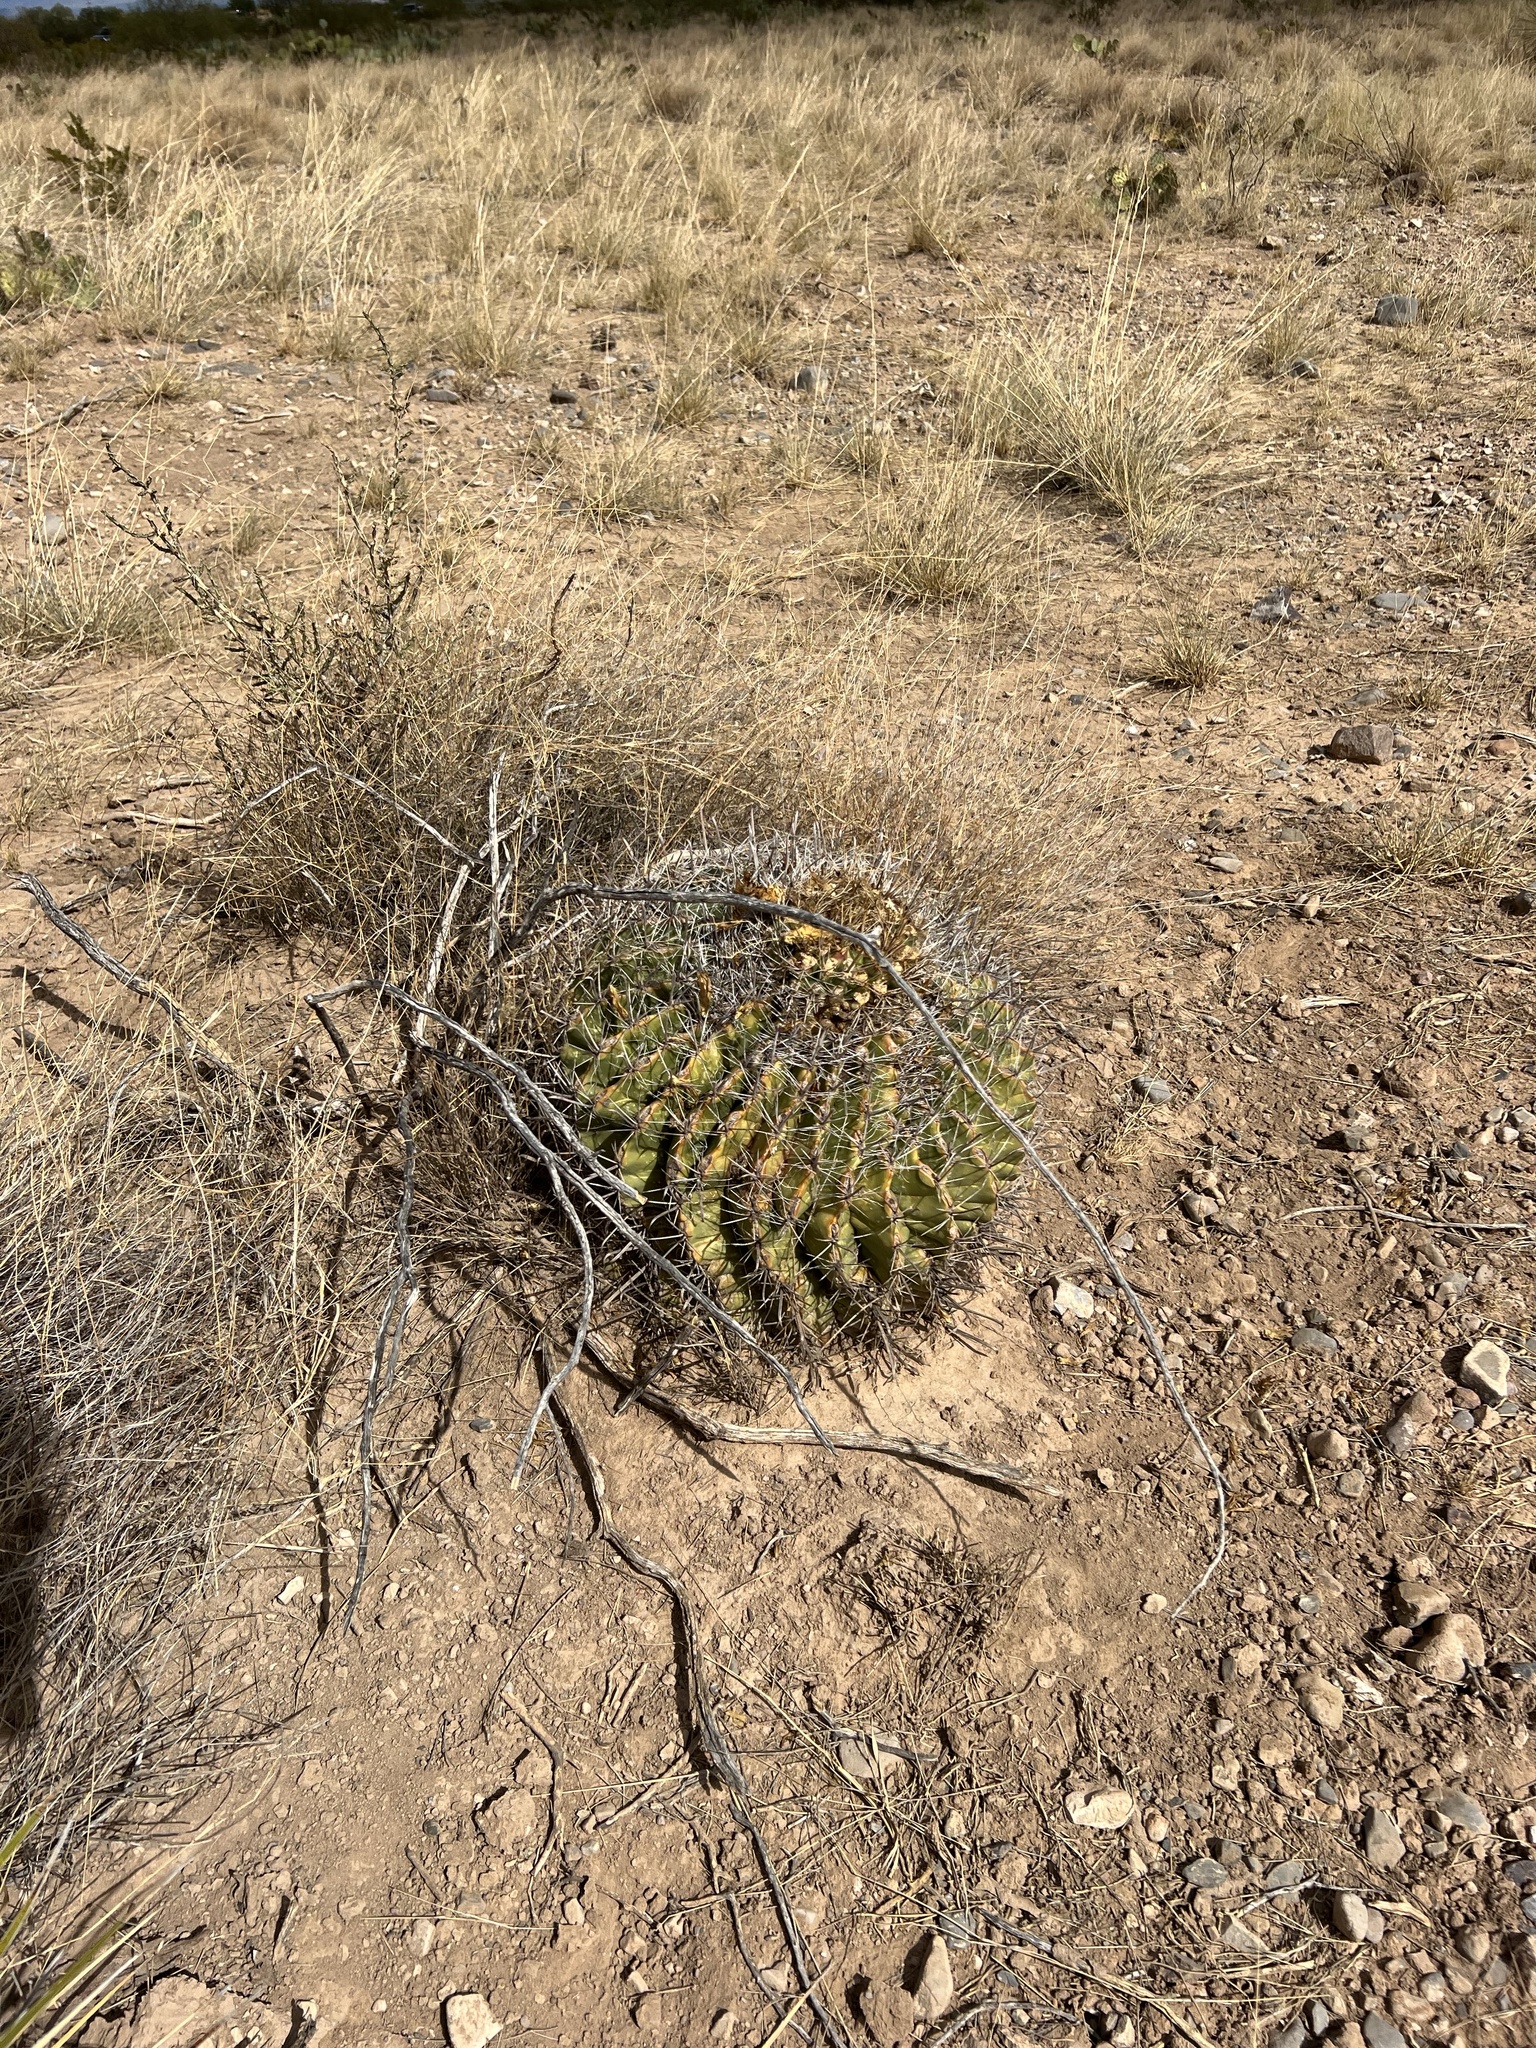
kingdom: Plantae
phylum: Tracheophyta
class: Magnoliopsida
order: Caryophyllales
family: Cactaceae
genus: Ferocactus
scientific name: Ferocactus wislizeni
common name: Candy barrel cactus
